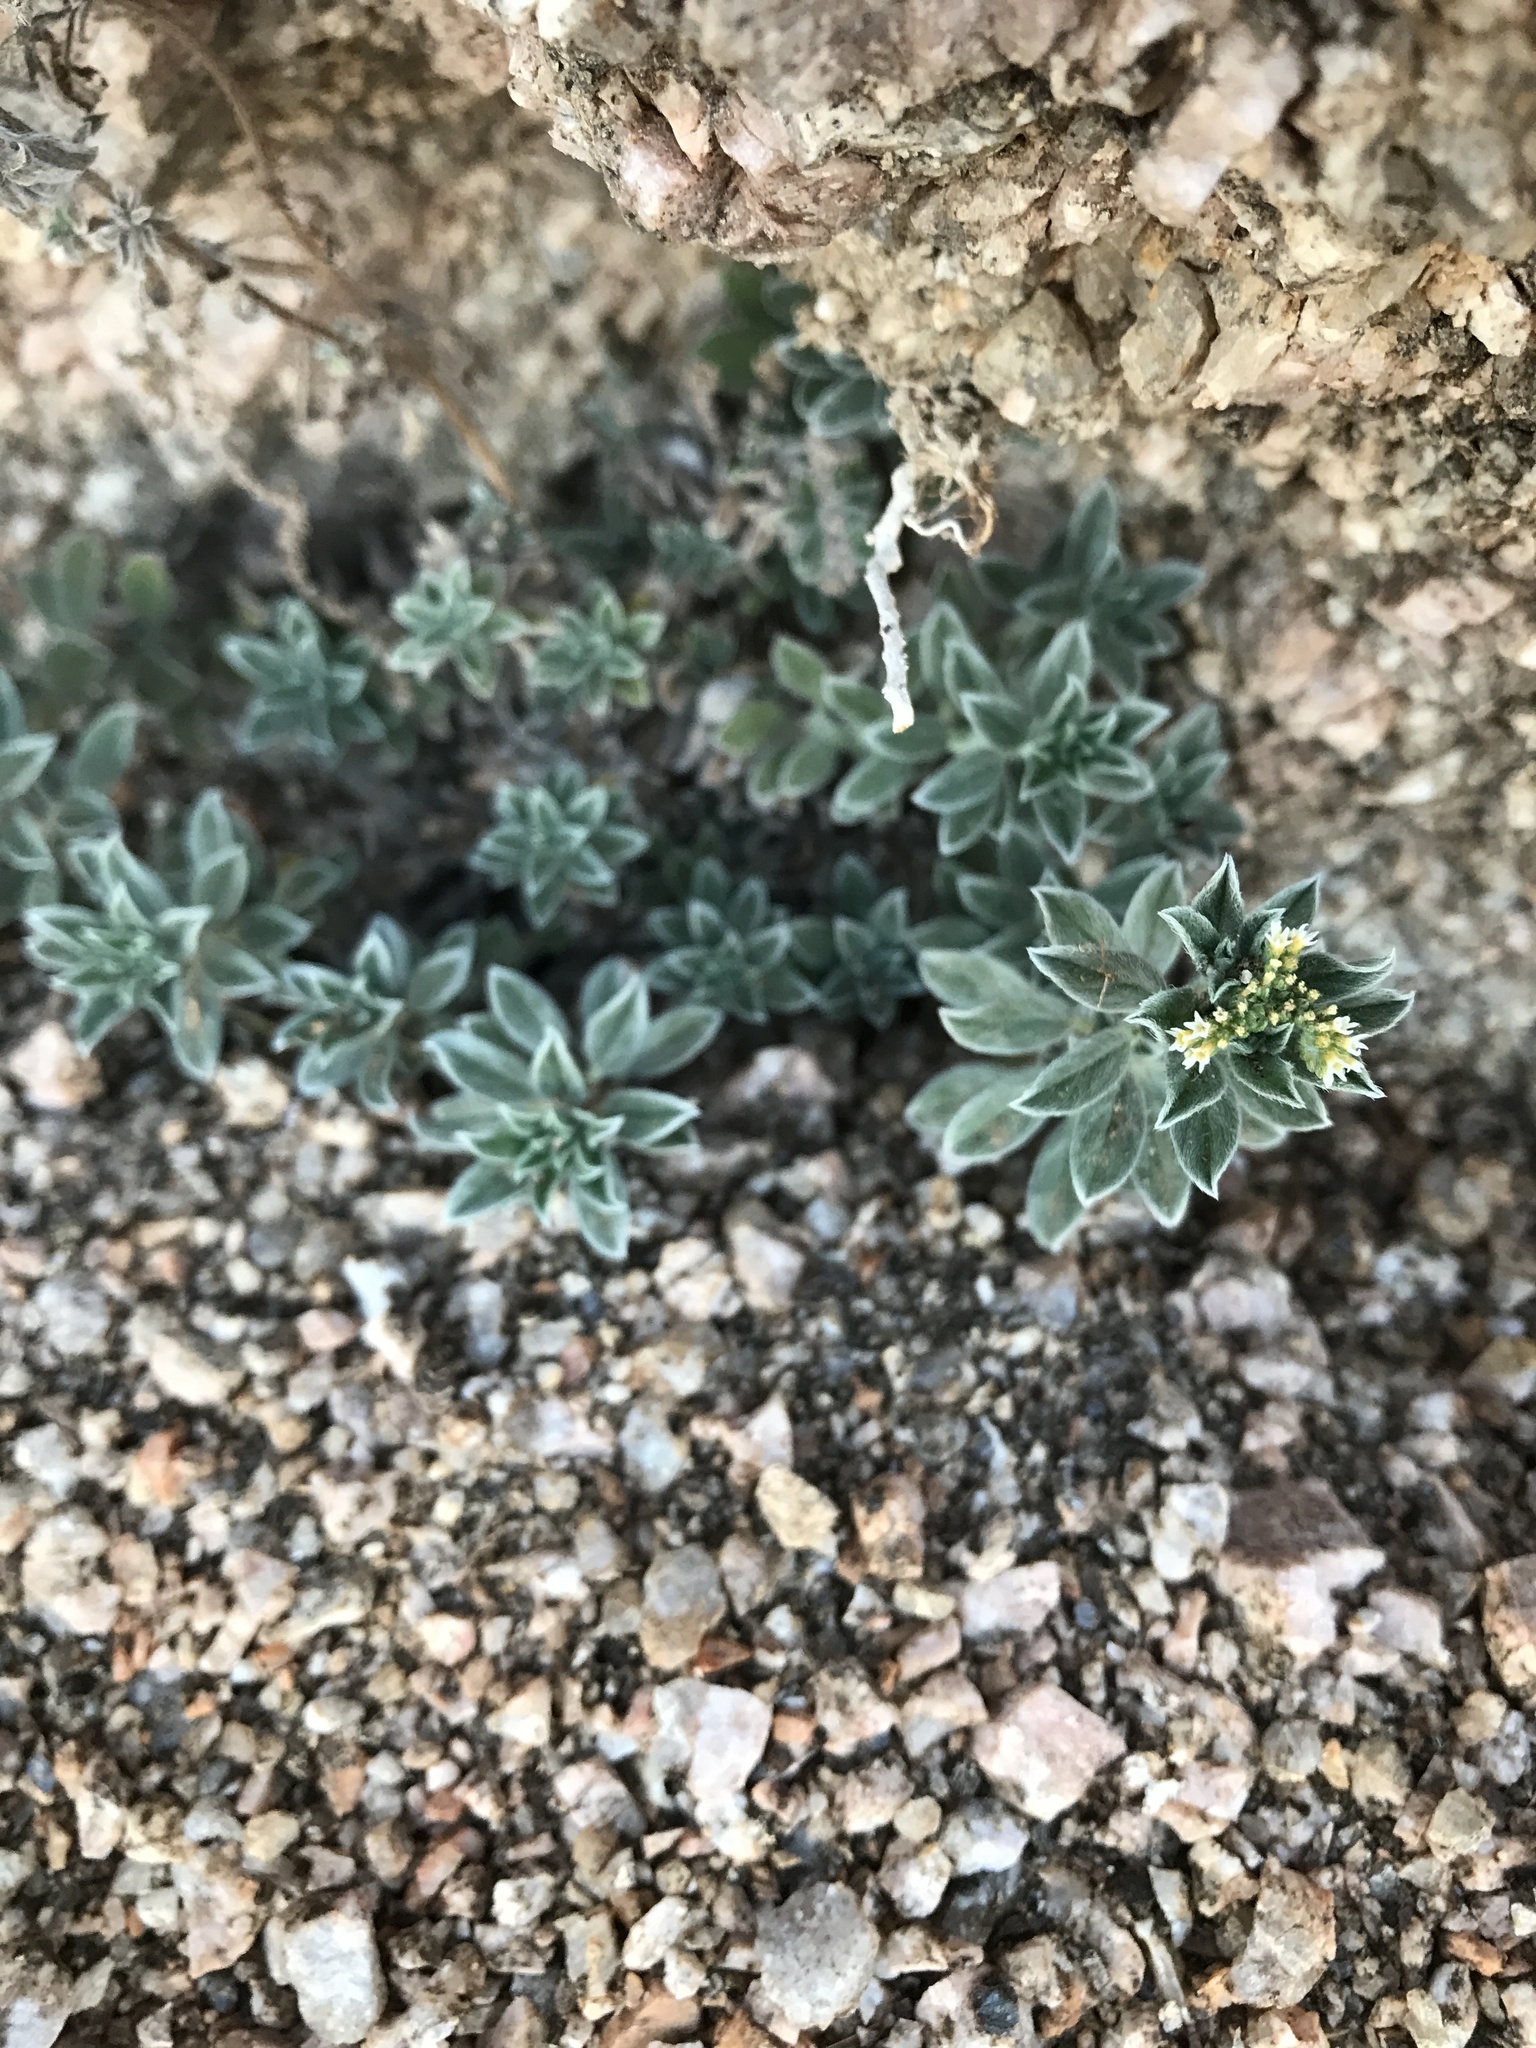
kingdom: Plantae
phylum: Tracheophyta
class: Magnoliopsida
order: Boraginales
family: Heliotropiaceae
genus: Euploca
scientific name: Euploca procumbens
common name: Fourspike heliotrope
